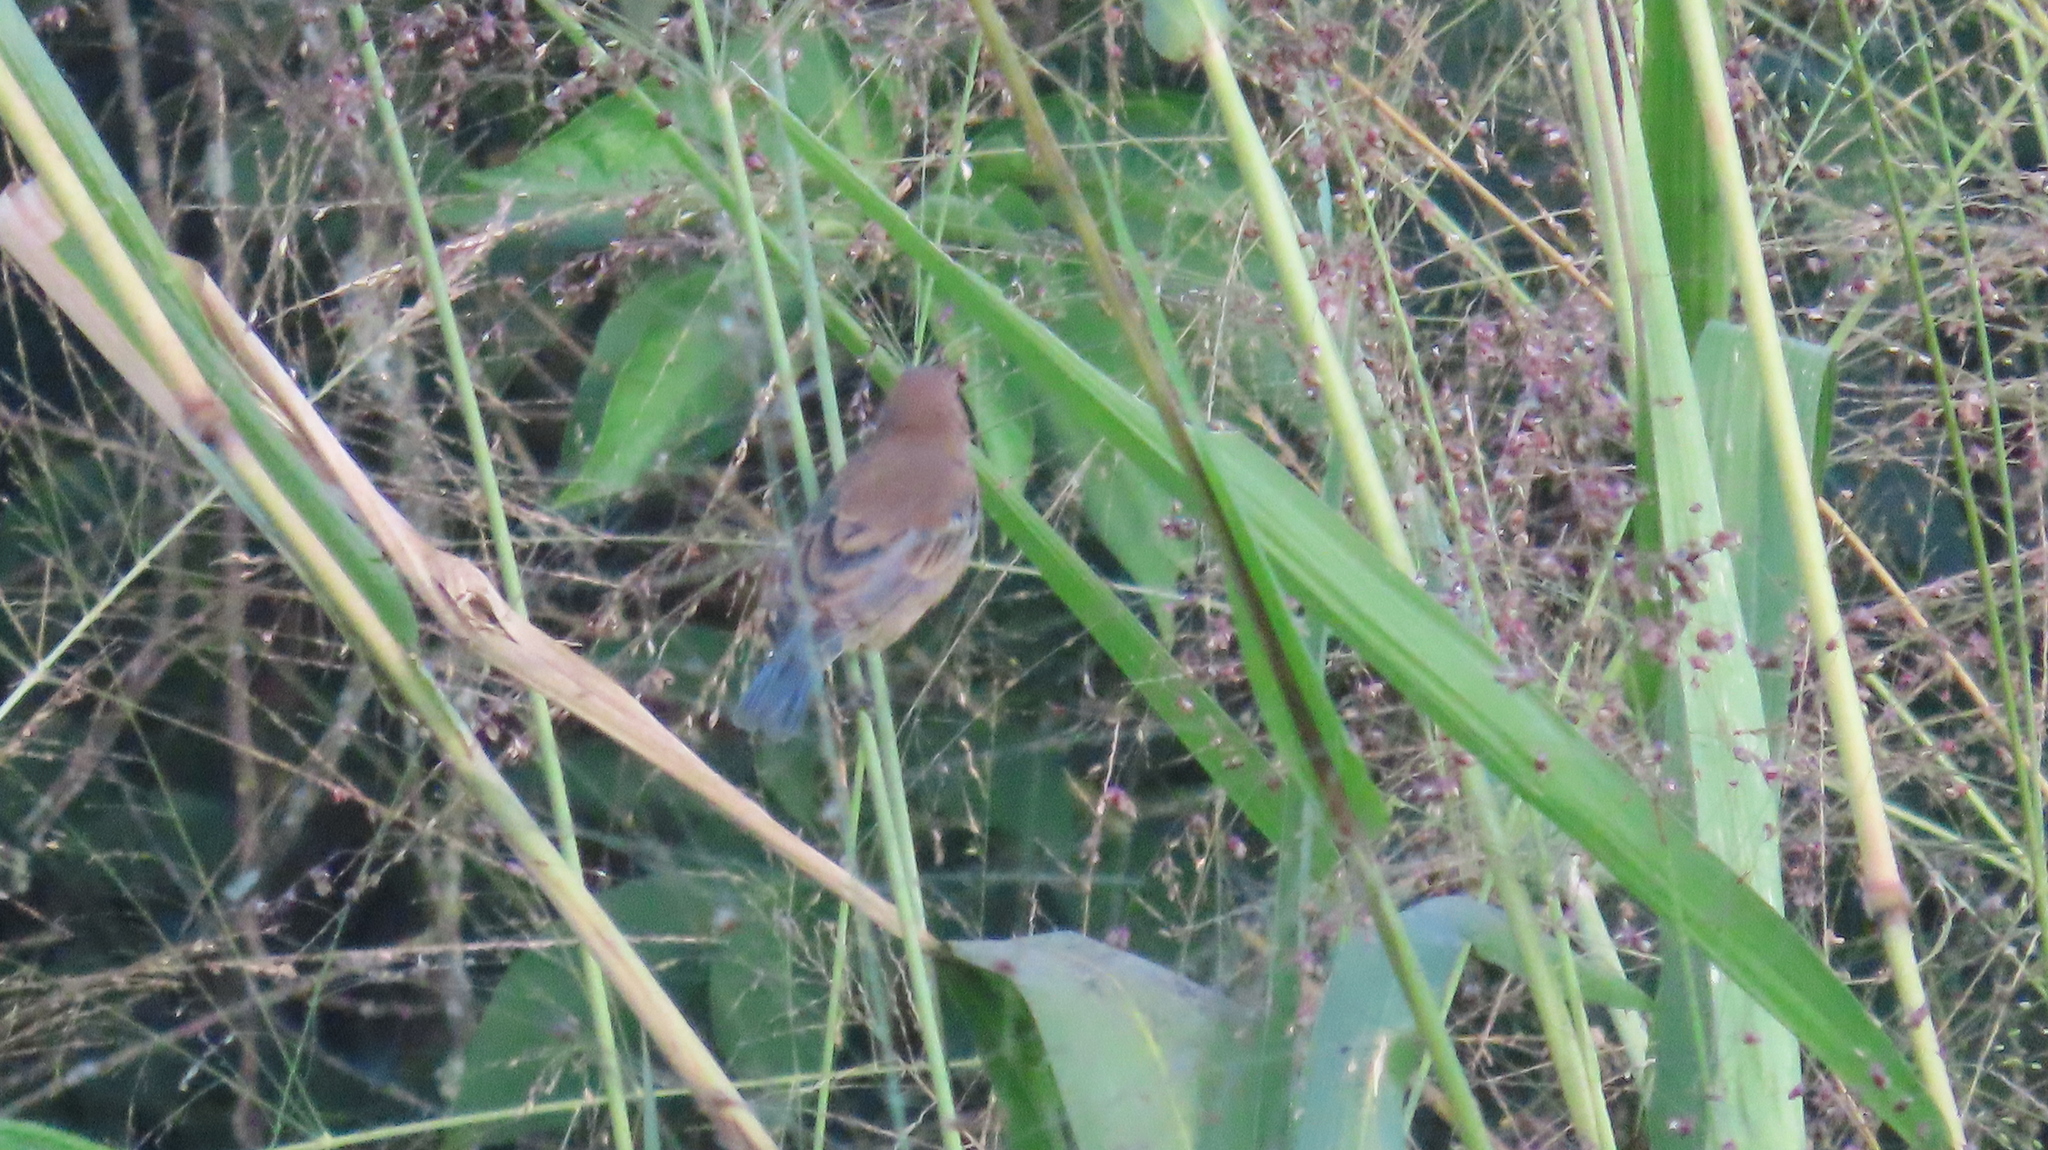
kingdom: Animalia
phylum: Chordata
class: Aves
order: Passeriformes
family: Cardinalidae
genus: Passerina
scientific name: Passerina caerulea
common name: Blue grosbeak
